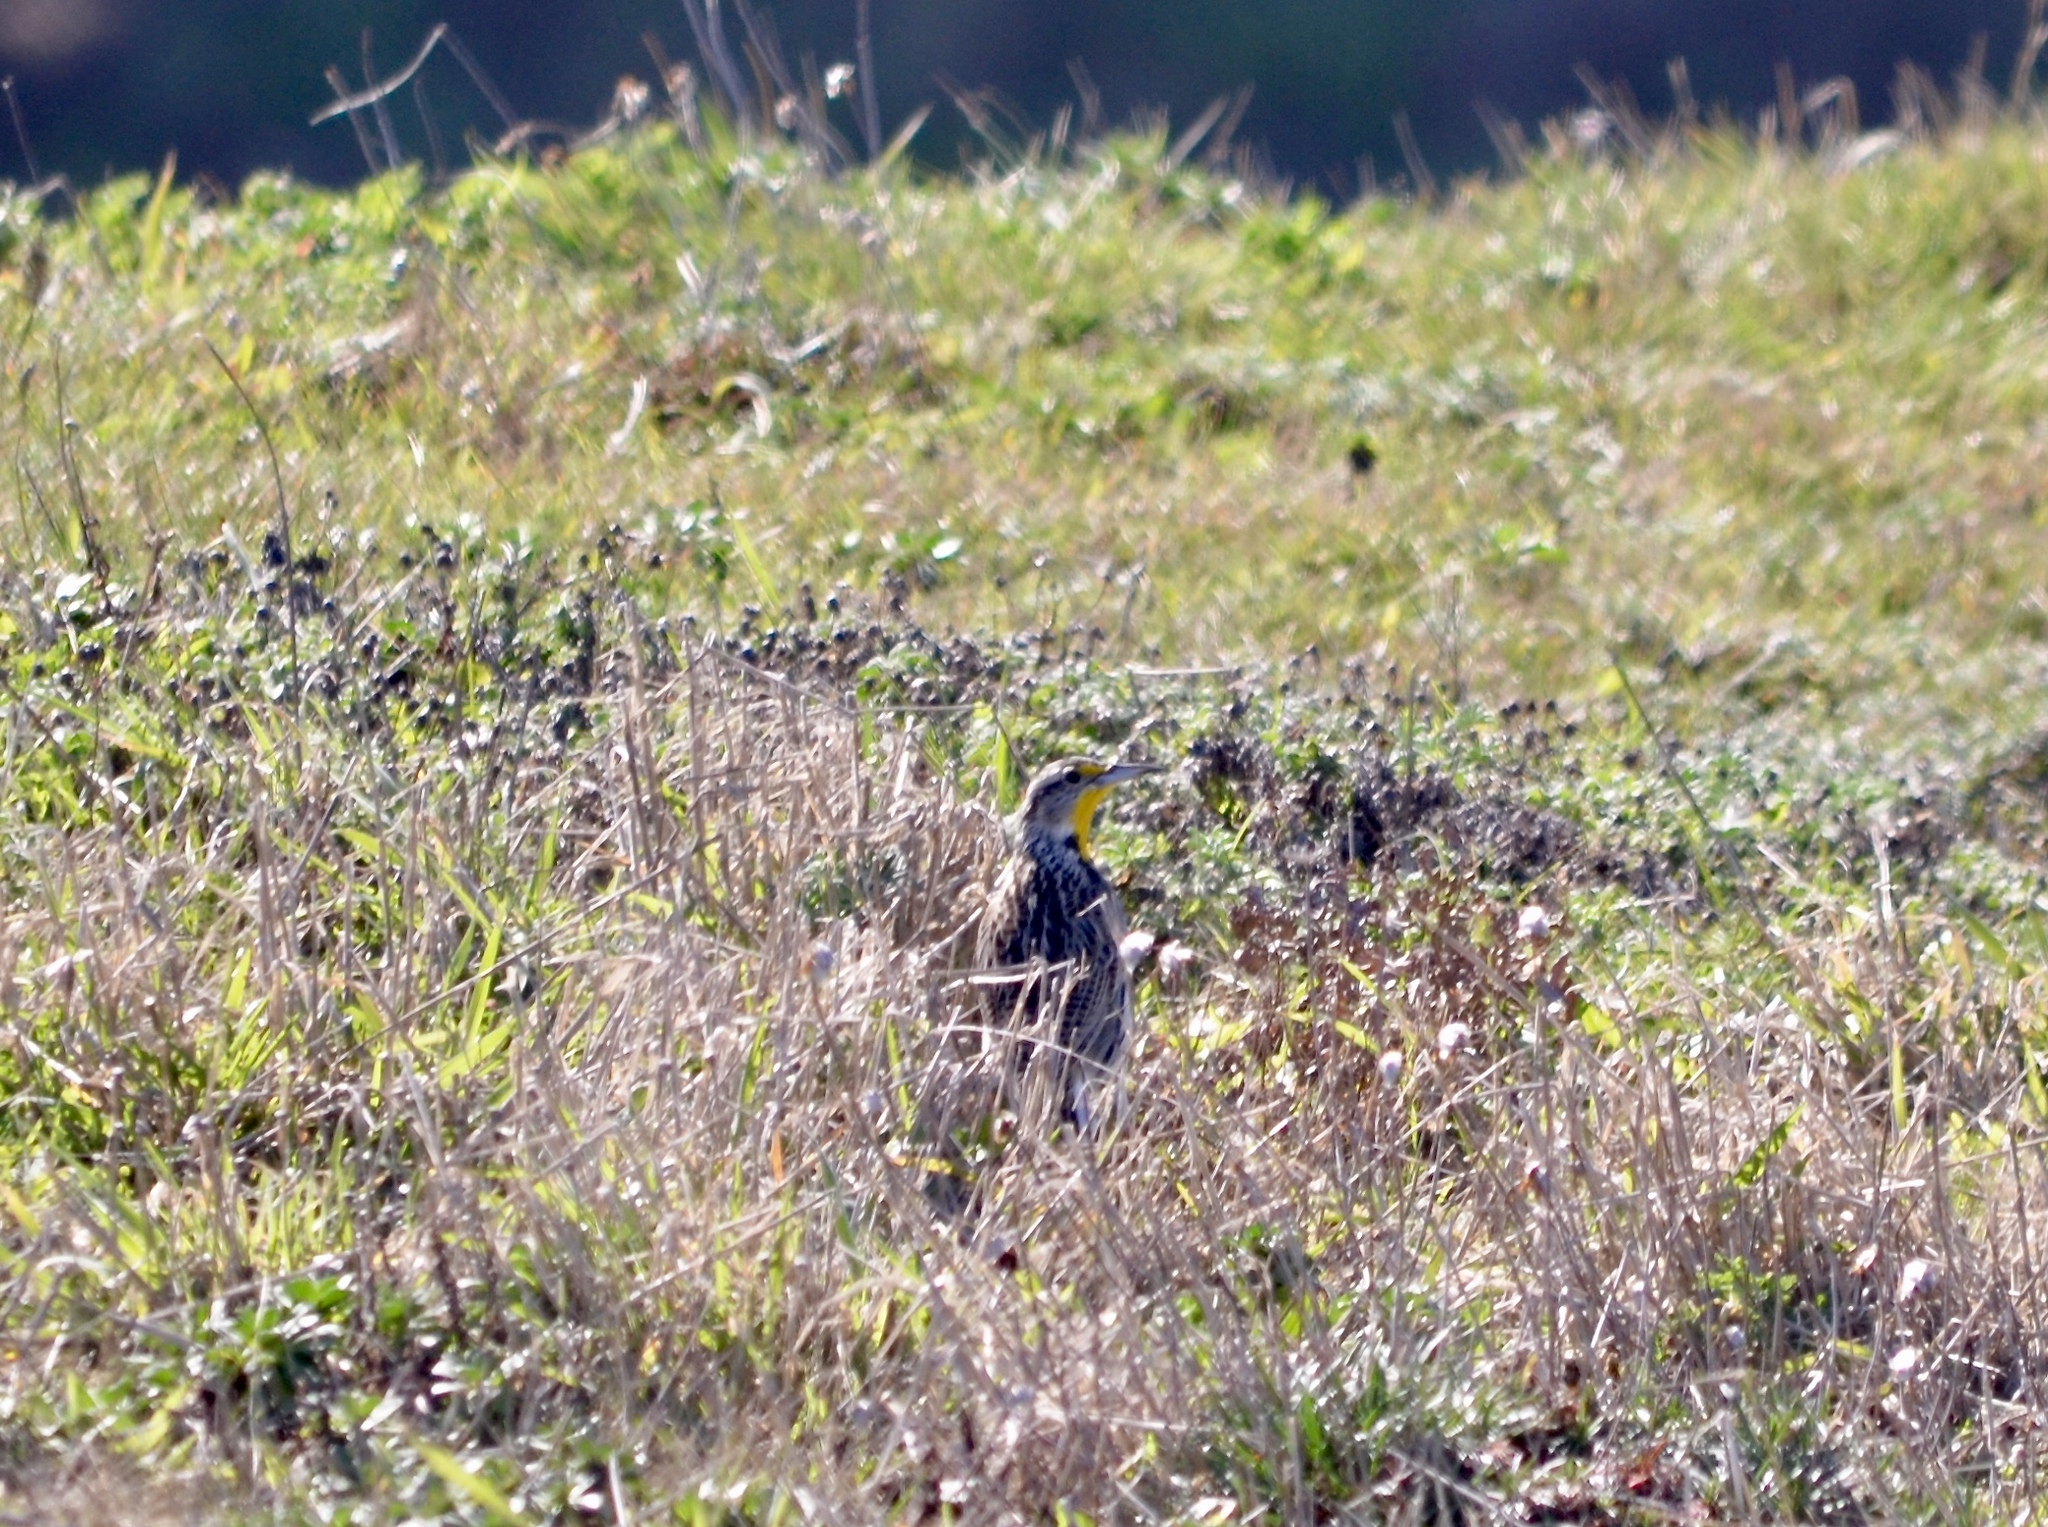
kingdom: Animalia
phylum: Chordata
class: Aves
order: Passeriformes
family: Icteridae
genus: Sturnella
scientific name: Sturnella neglecta
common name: Western meadowlark
